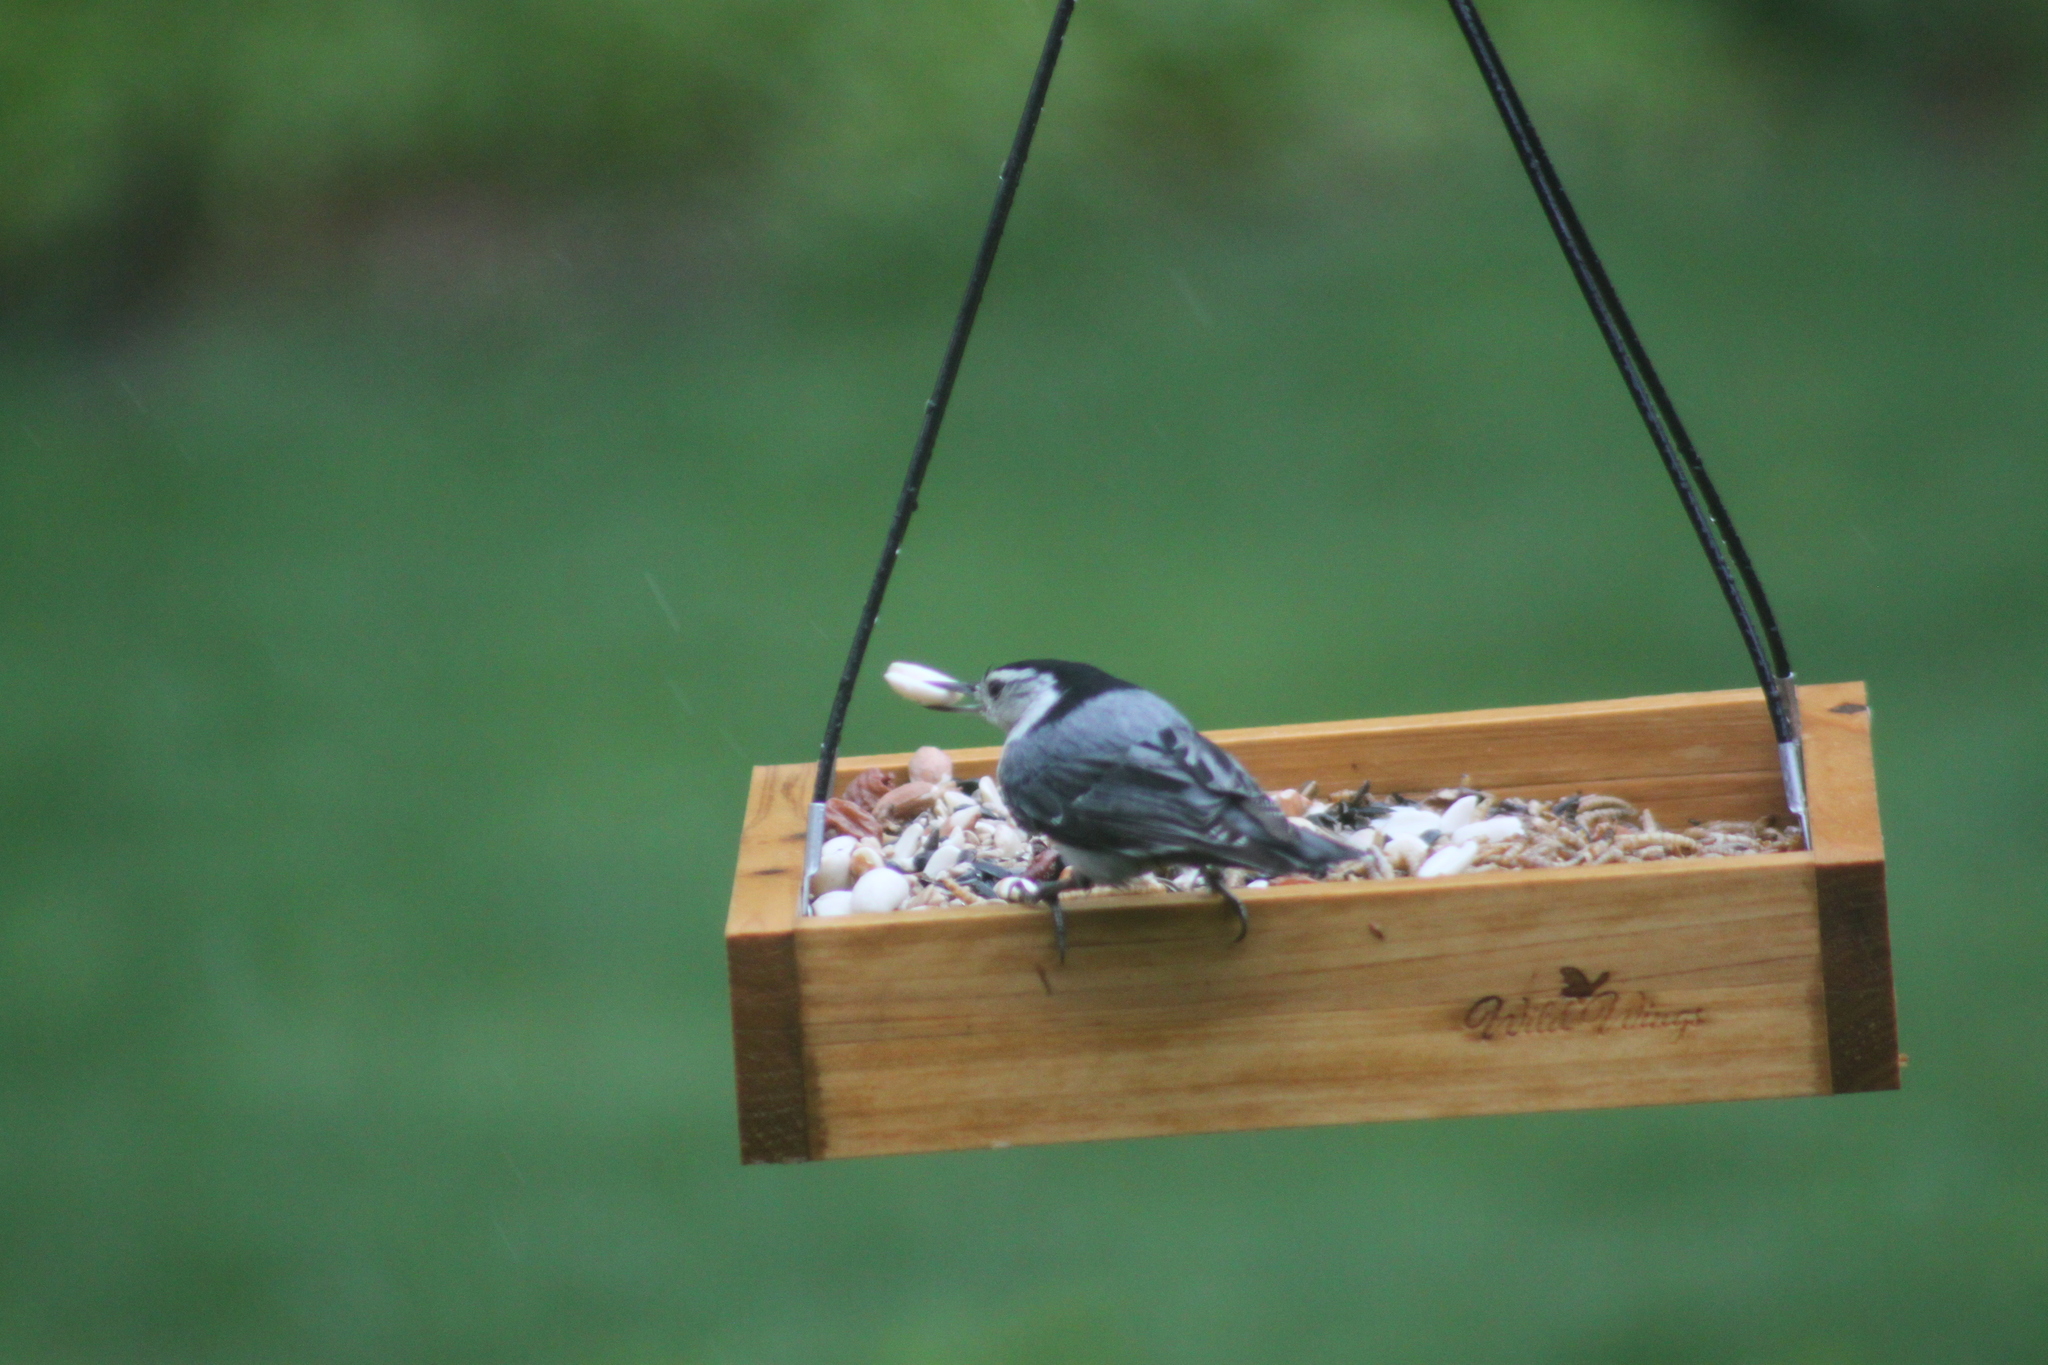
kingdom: Animalia
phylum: Chordata
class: Aves
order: Passeriformes
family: Sittidae
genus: Sitta
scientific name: Sitta carolinensis
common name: White-breasted nuthatch
